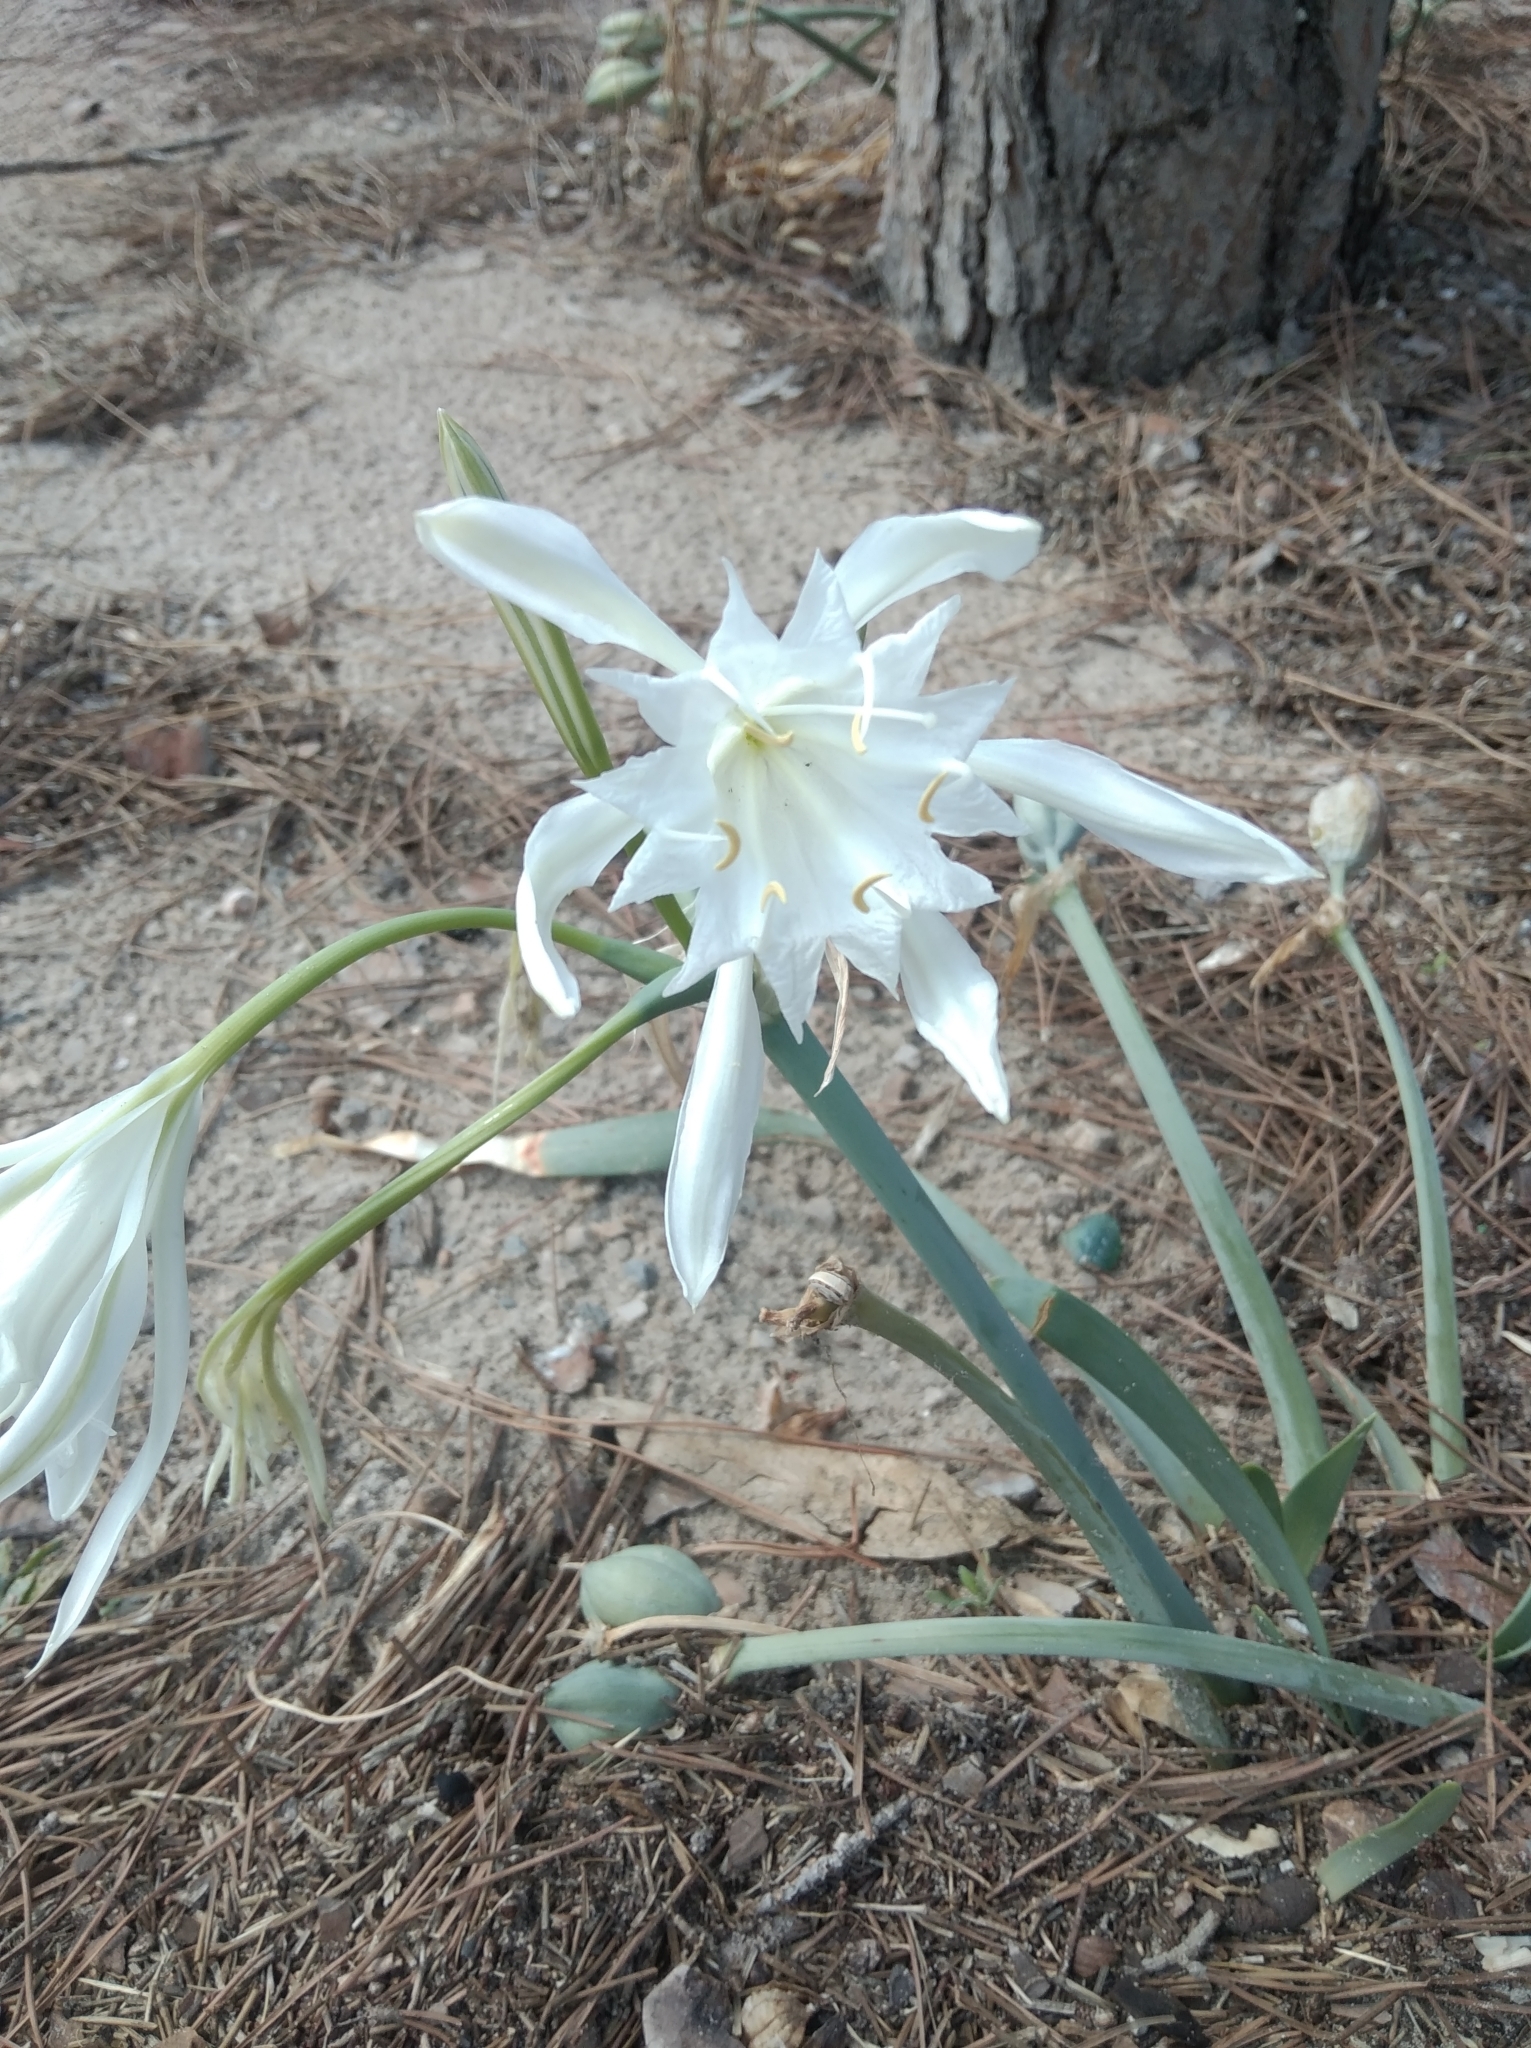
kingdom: Plantae
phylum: Tracheophyta
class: Liliopsida
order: Asparagales
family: Amaryllidaceae
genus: Pancratium
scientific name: Pancratium maritimum
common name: Sea-daffodil
